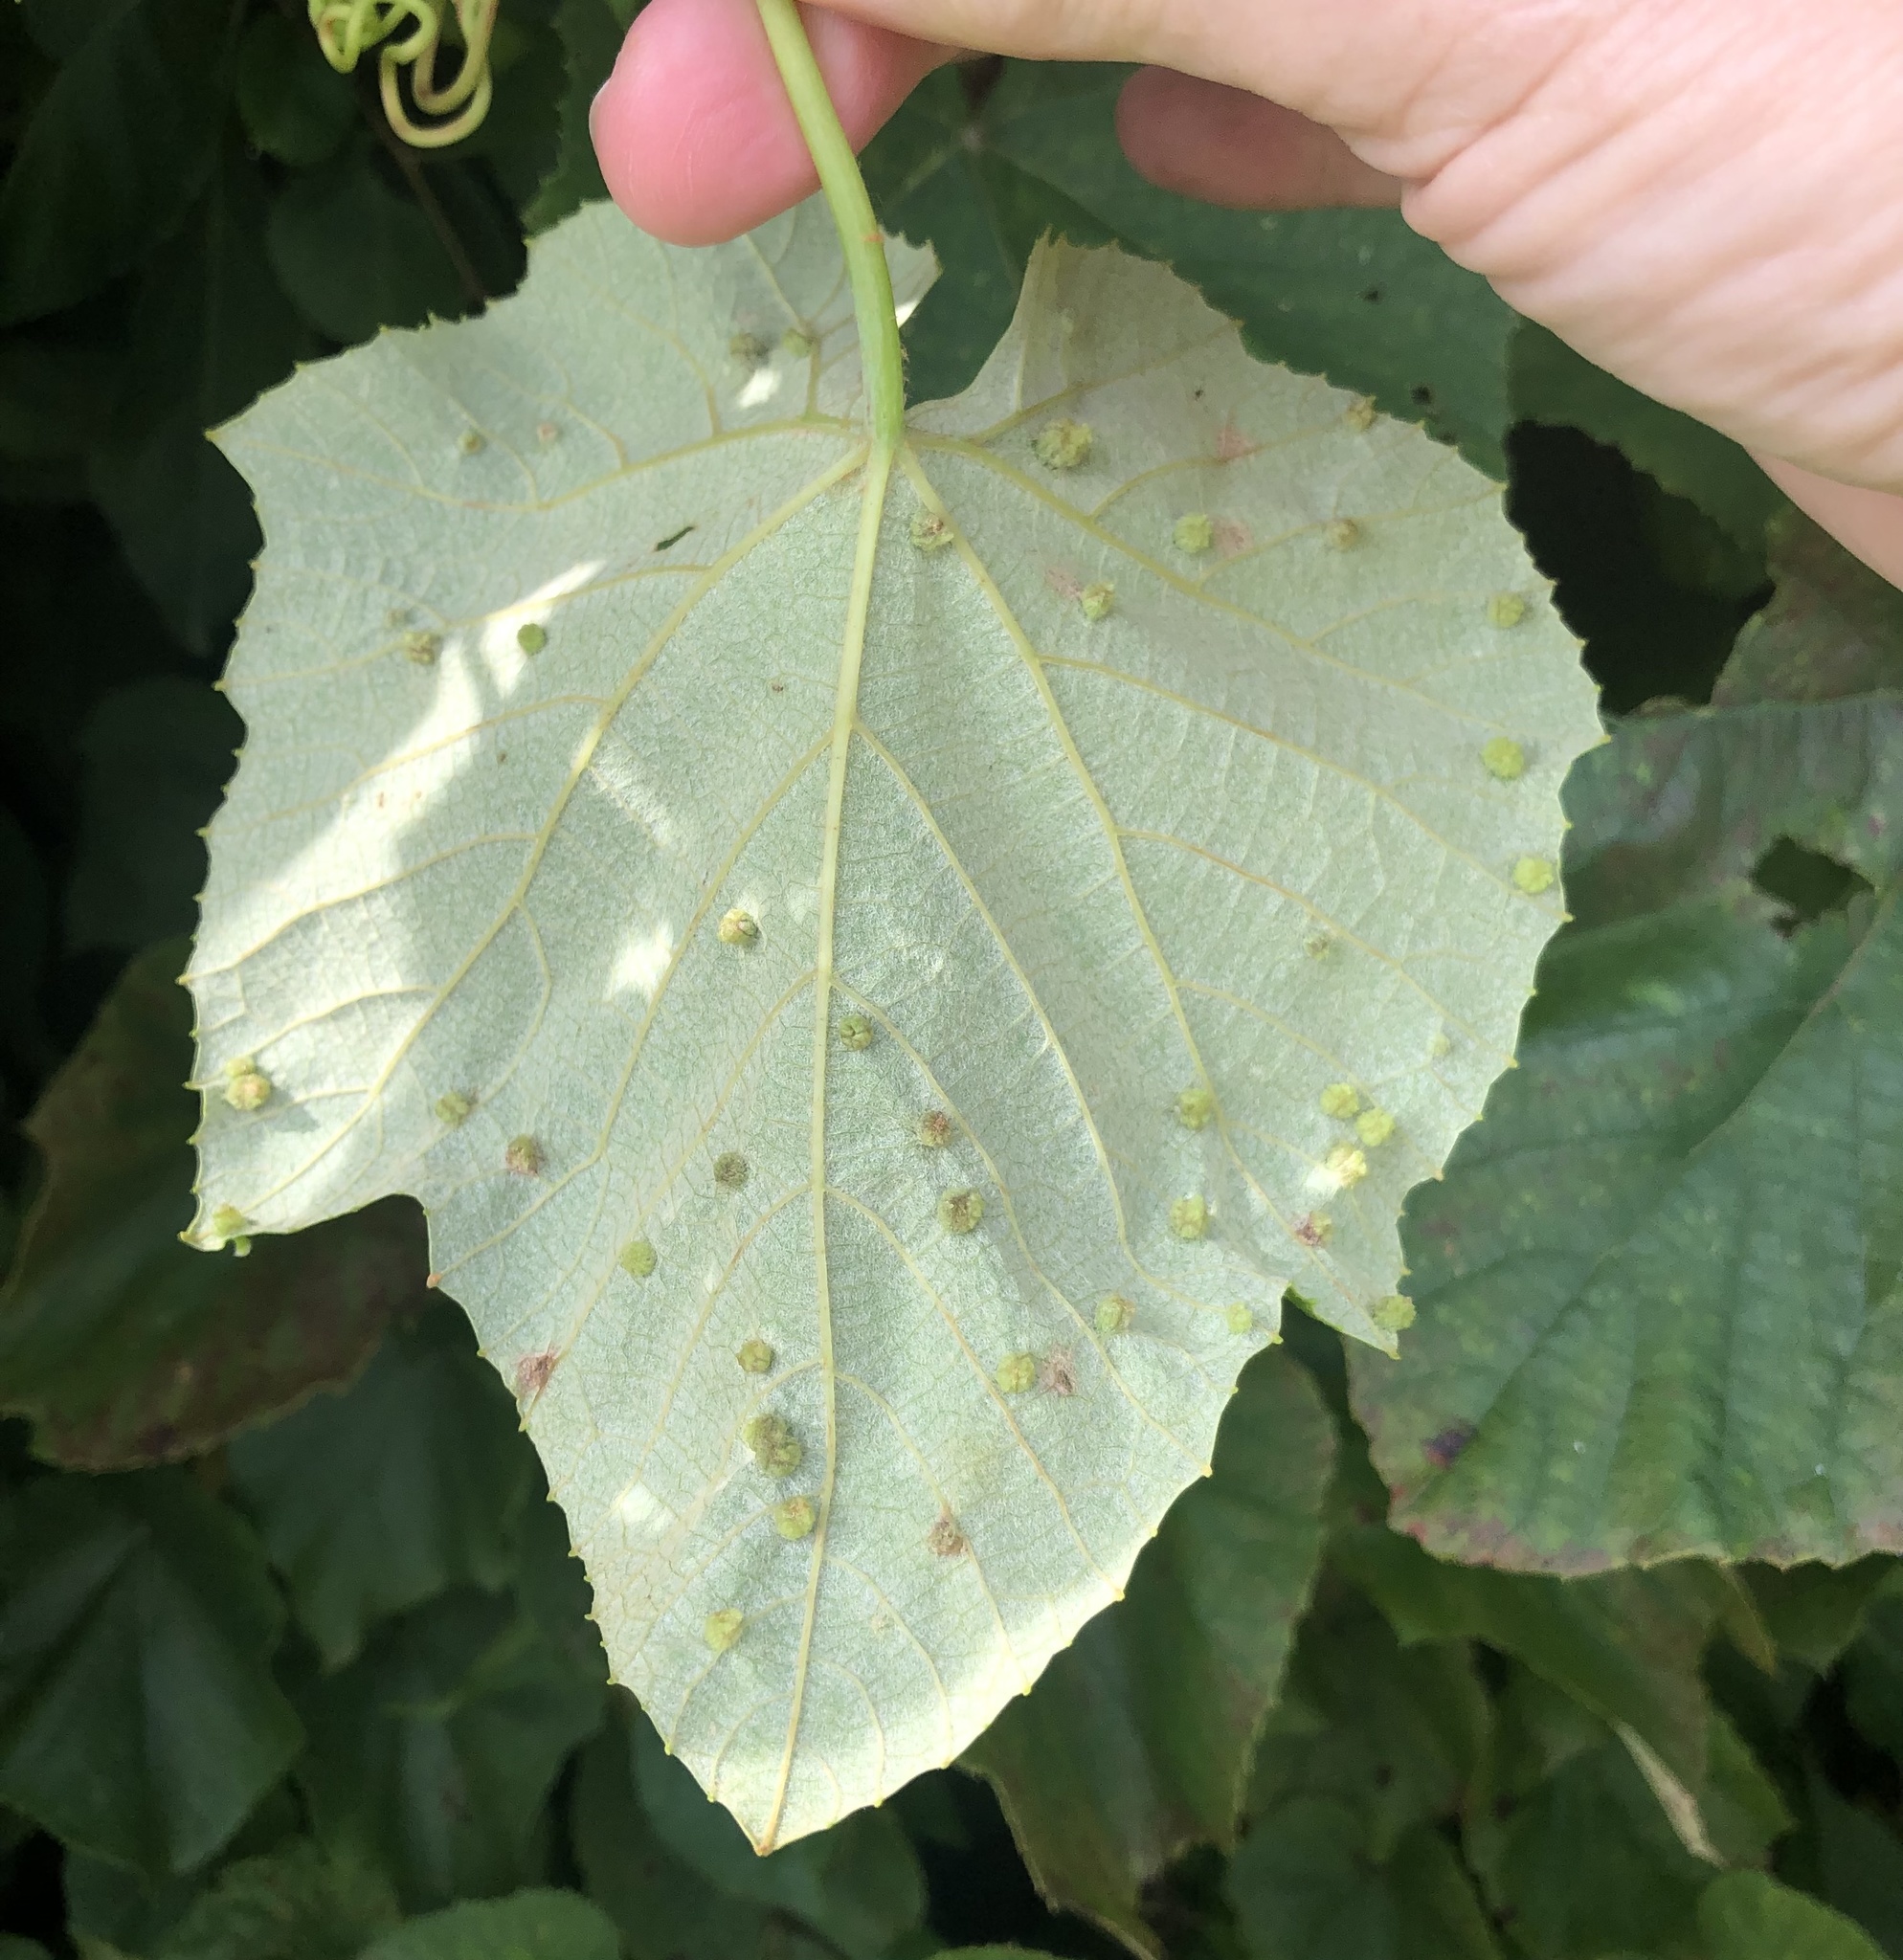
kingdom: Animalia
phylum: Arthropoda
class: Insecta
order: Hemiptera
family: Phylloxeridae
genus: Daktulosphaira
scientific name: Daktulosphaira vitifoliae
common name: Grape phylloxera
